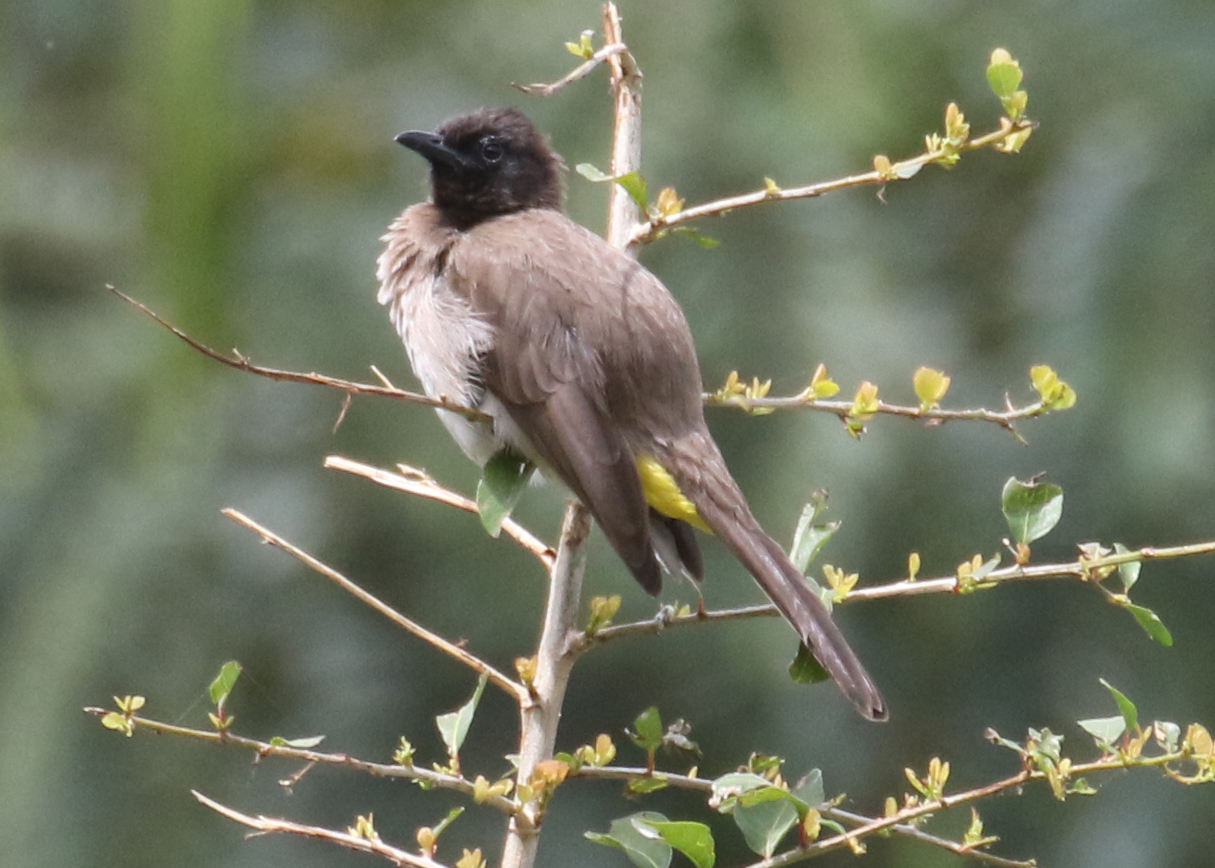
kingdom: Animalia
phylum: Chordata
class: Aves
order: Passeriformes
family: Pycnonotidae
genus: Pycnonotus
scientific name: Pycnonotus barbatus
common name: Common bulbul
